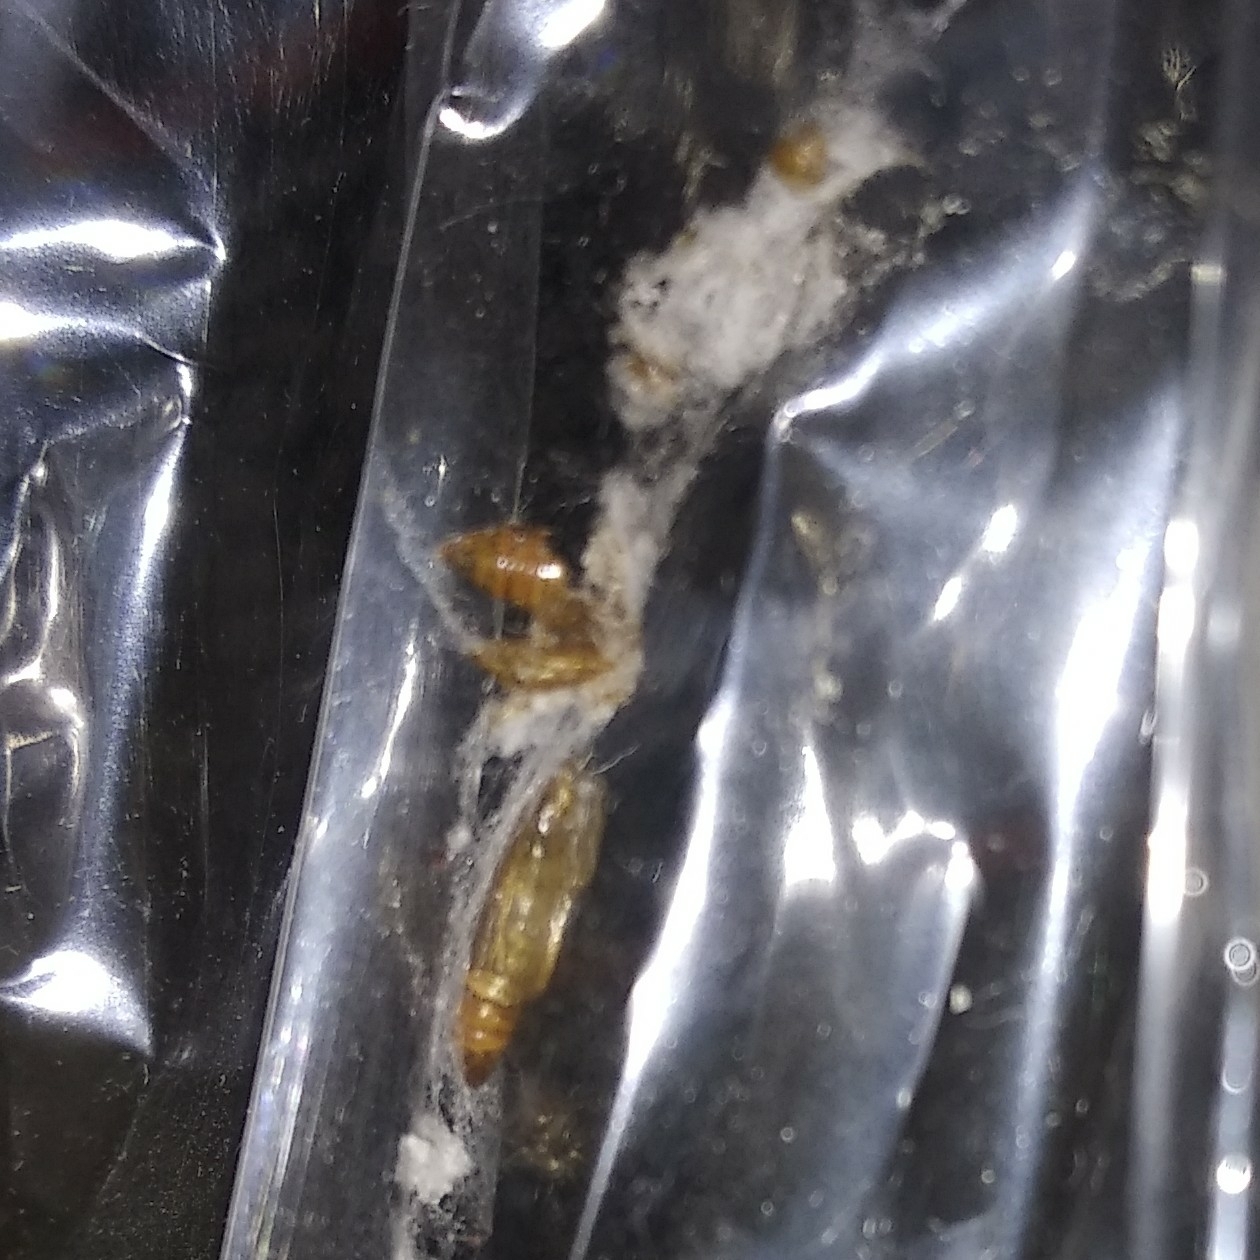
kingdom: Animalia
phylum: Arthropoda
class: Insecta
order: Lepidoptera
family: Pyralidae
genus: Corcyra
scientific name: Corcyra cephalonica
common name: Rice moth
